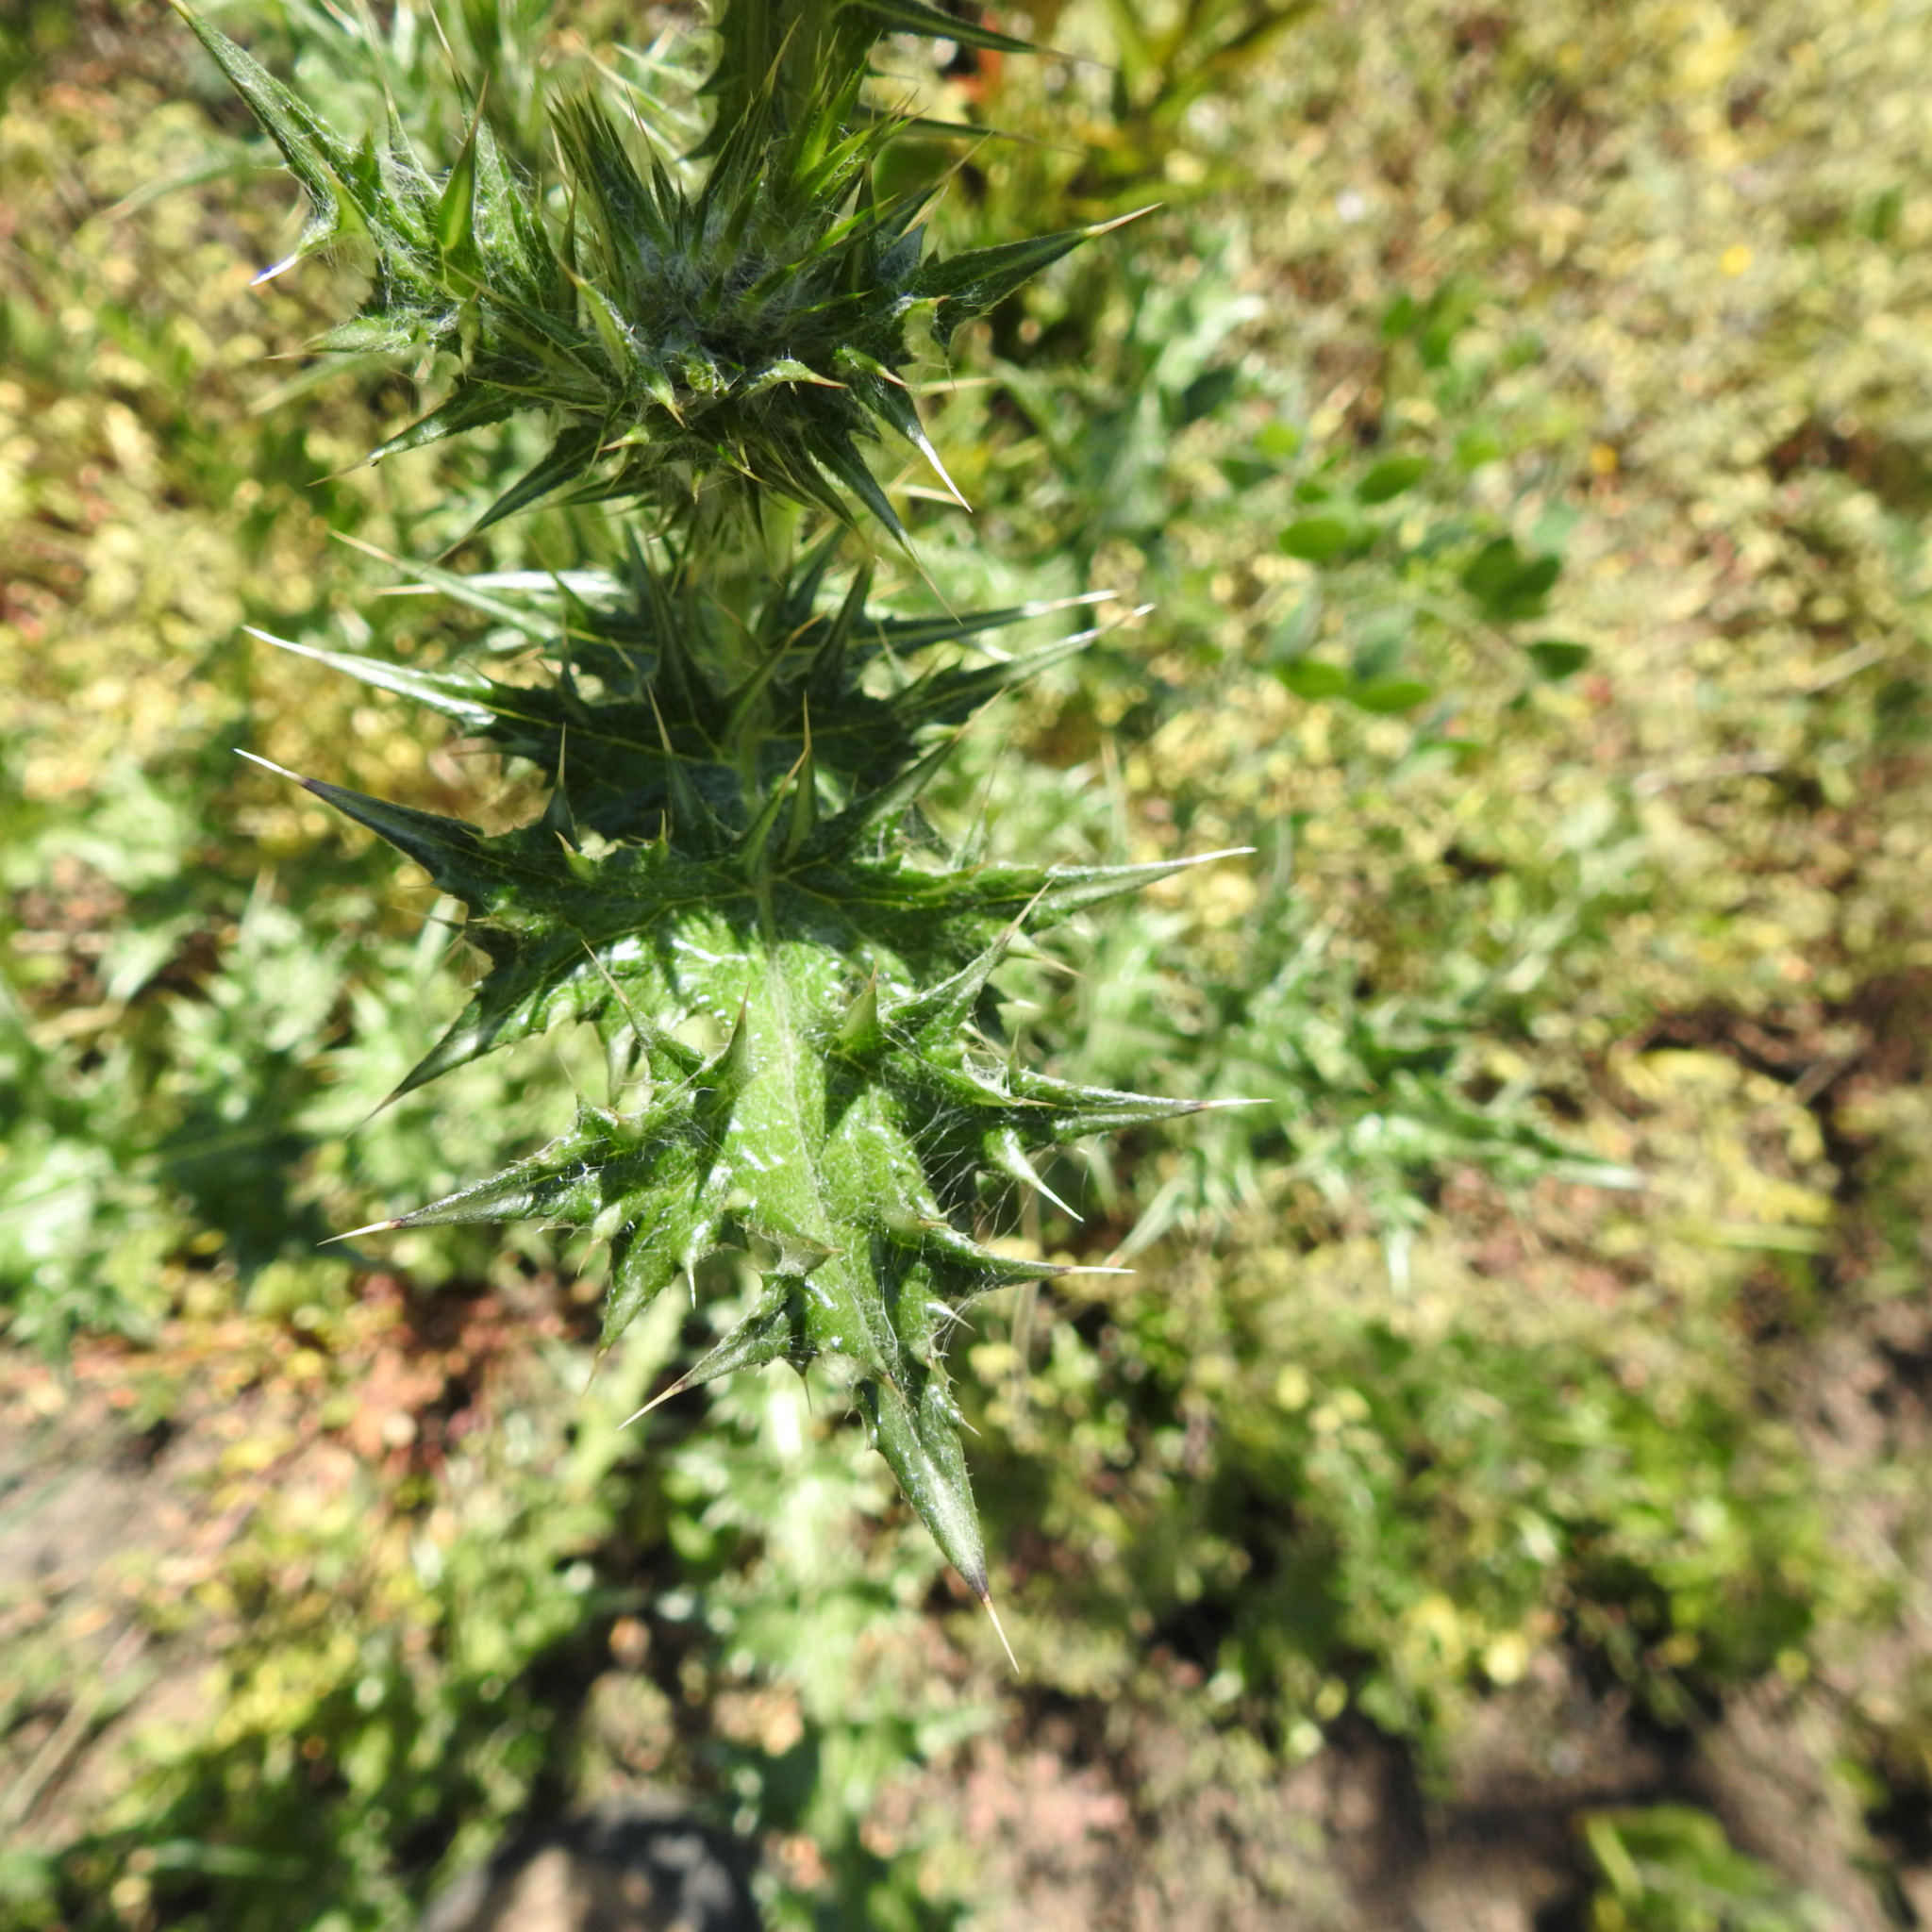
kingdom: Plantae
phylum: Tracheophyta
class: Magnoliopsida
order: Asterales
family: Asteraceae
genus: Carduus
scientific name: Carduus pycnocephalus
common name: Plymouth thistle
